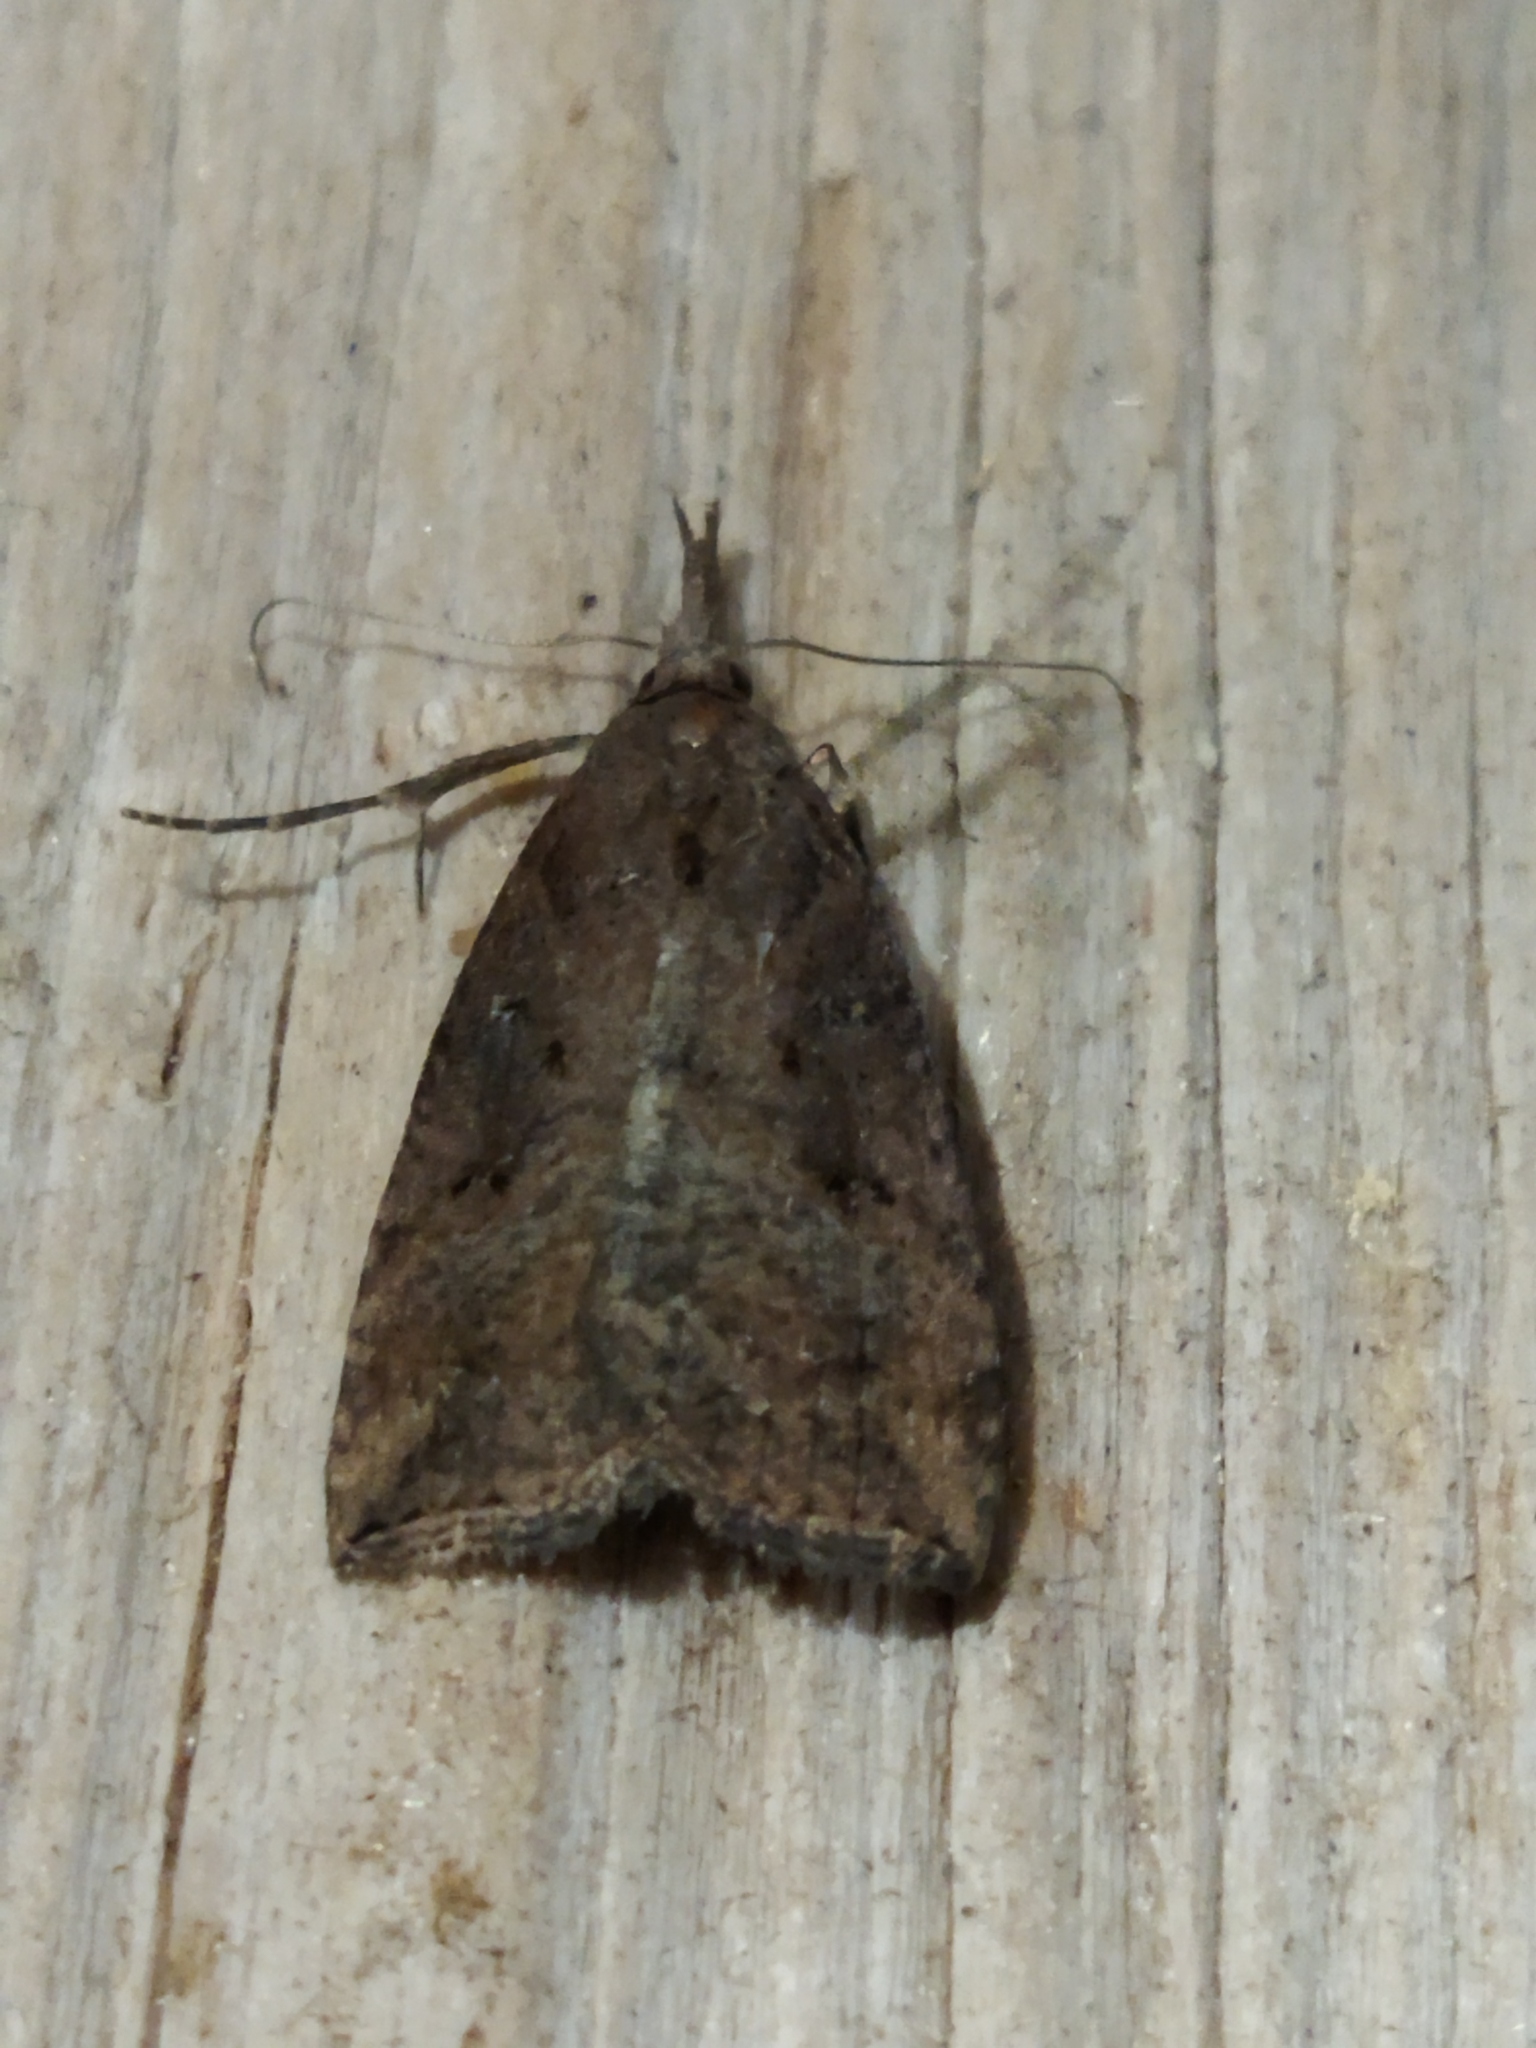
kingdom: Animalia
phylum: Arthropoda
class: Insecta
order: Lepidoptera
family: Erebidae
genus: Hypena
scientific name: Hypena rostralis
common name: Buttoned snout
